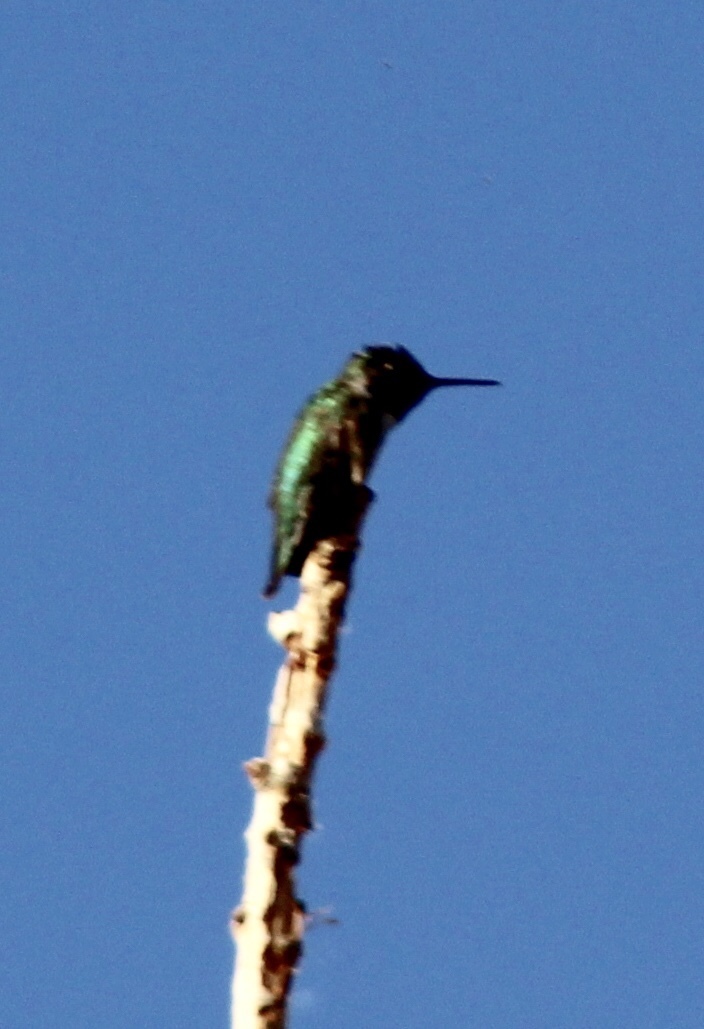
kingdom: Animalia
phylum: Chordata
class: Aves
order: Apodiformes
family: Trochilidae
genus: Calypte
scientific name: Calypte anna
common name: Anna's hummingbird
